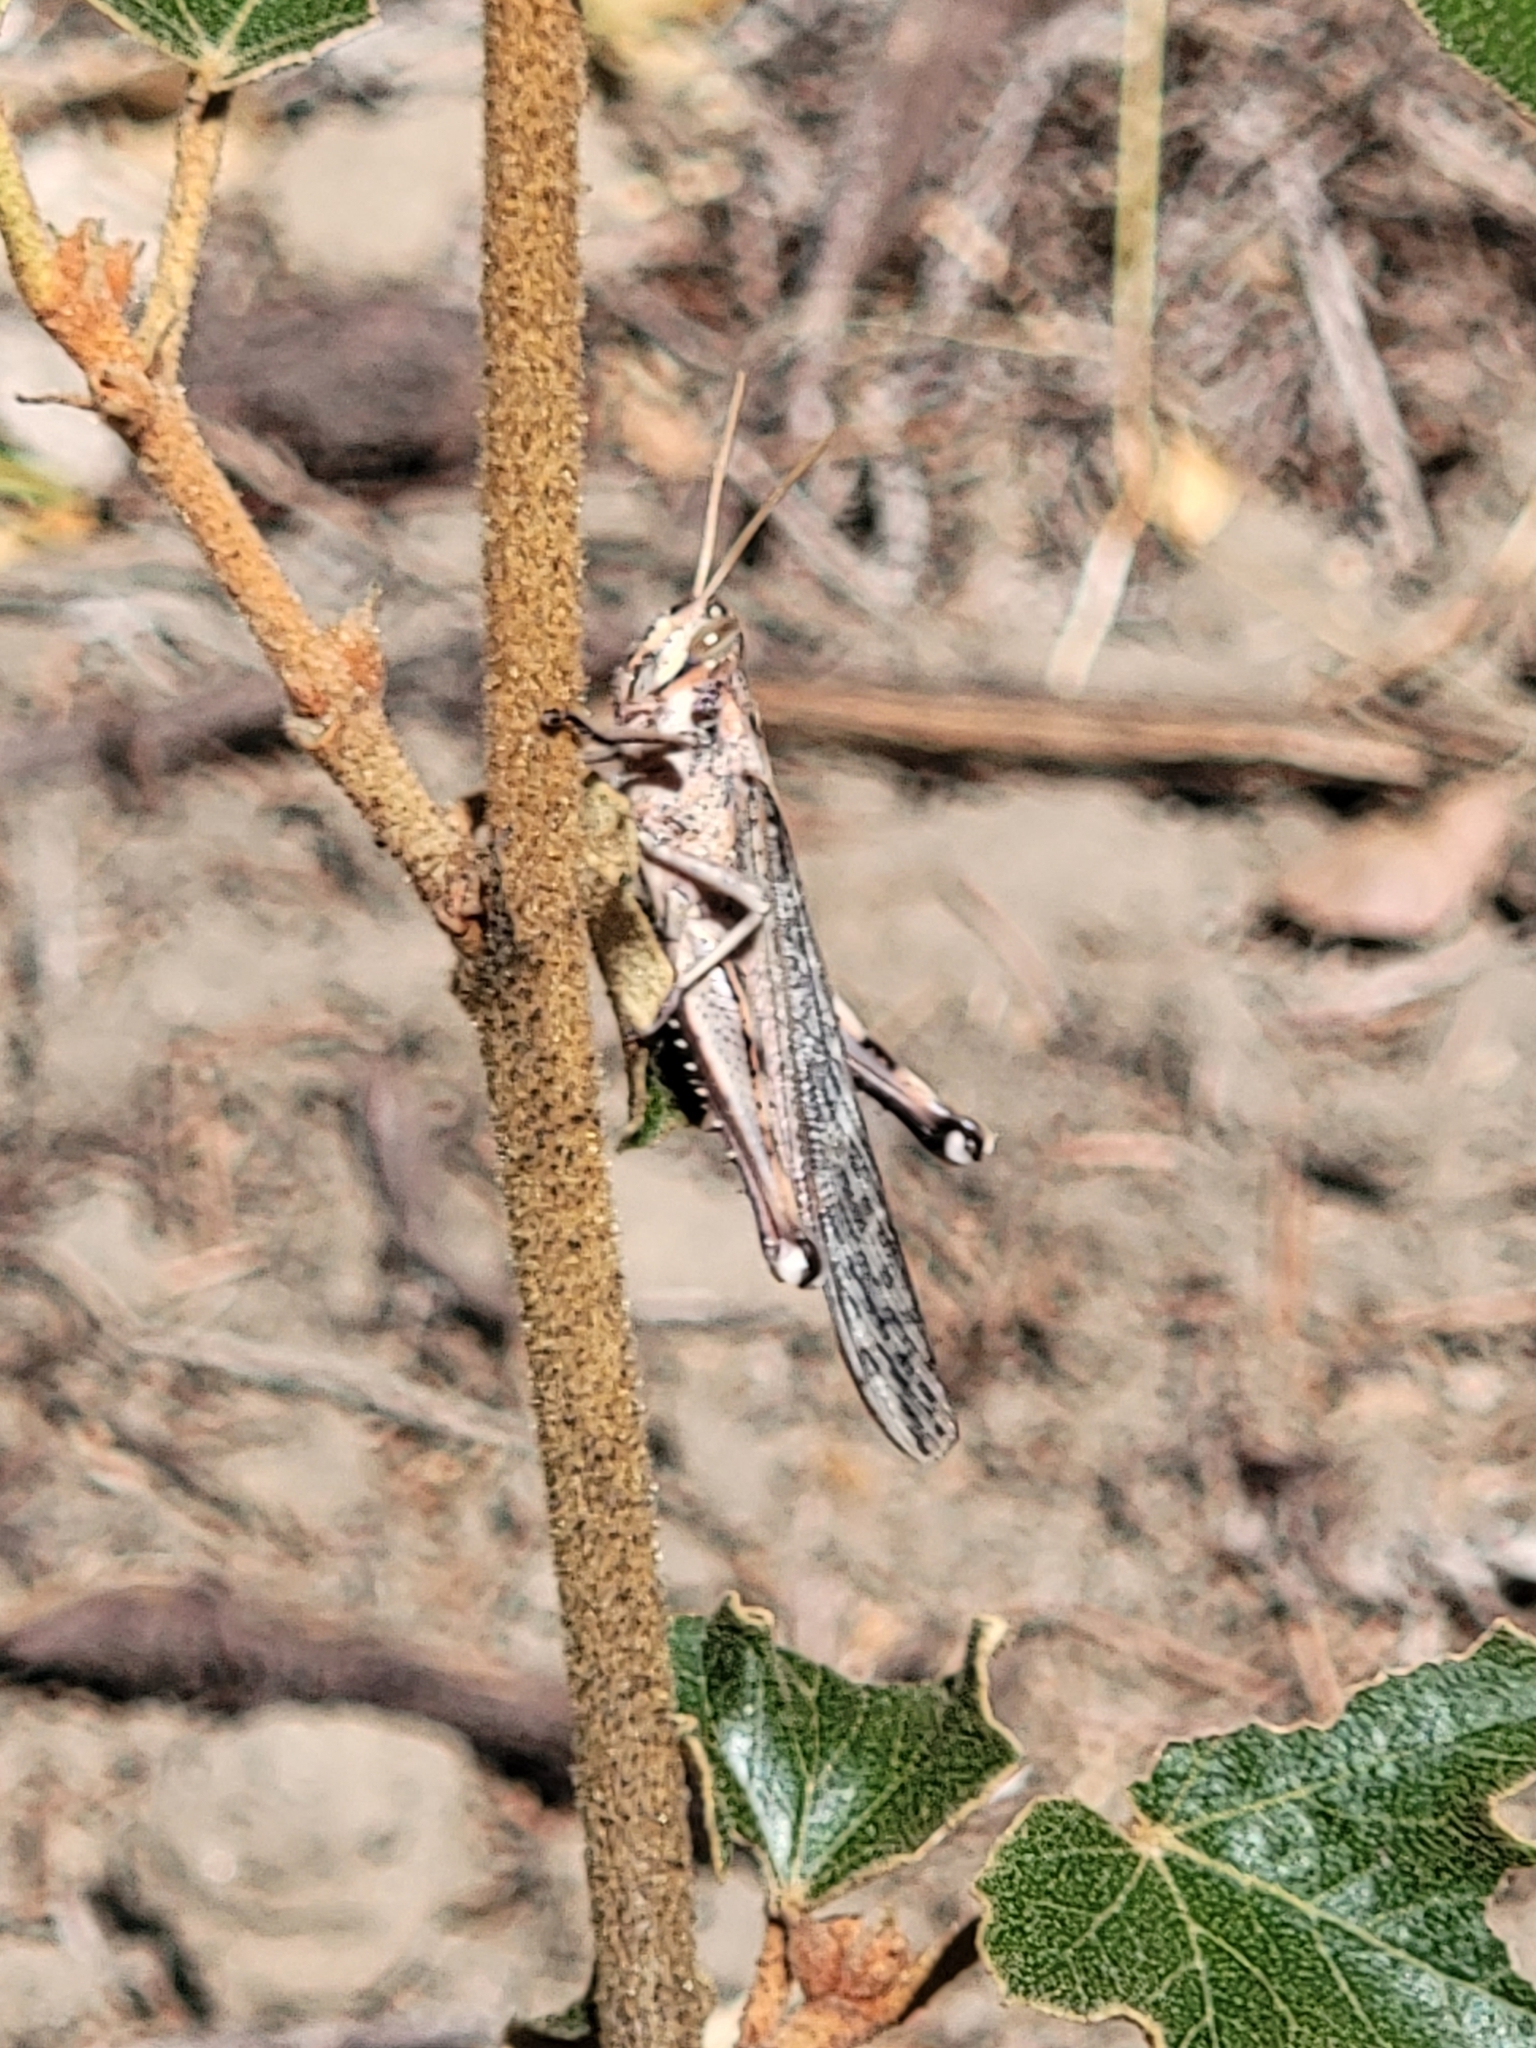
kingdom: Animalia
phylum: Arthropoda
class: Insecta
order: Orthoptera
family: Acrididae
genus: Schistocerca
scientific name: Schistocerca nitens
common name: Vagrant grasshopper
